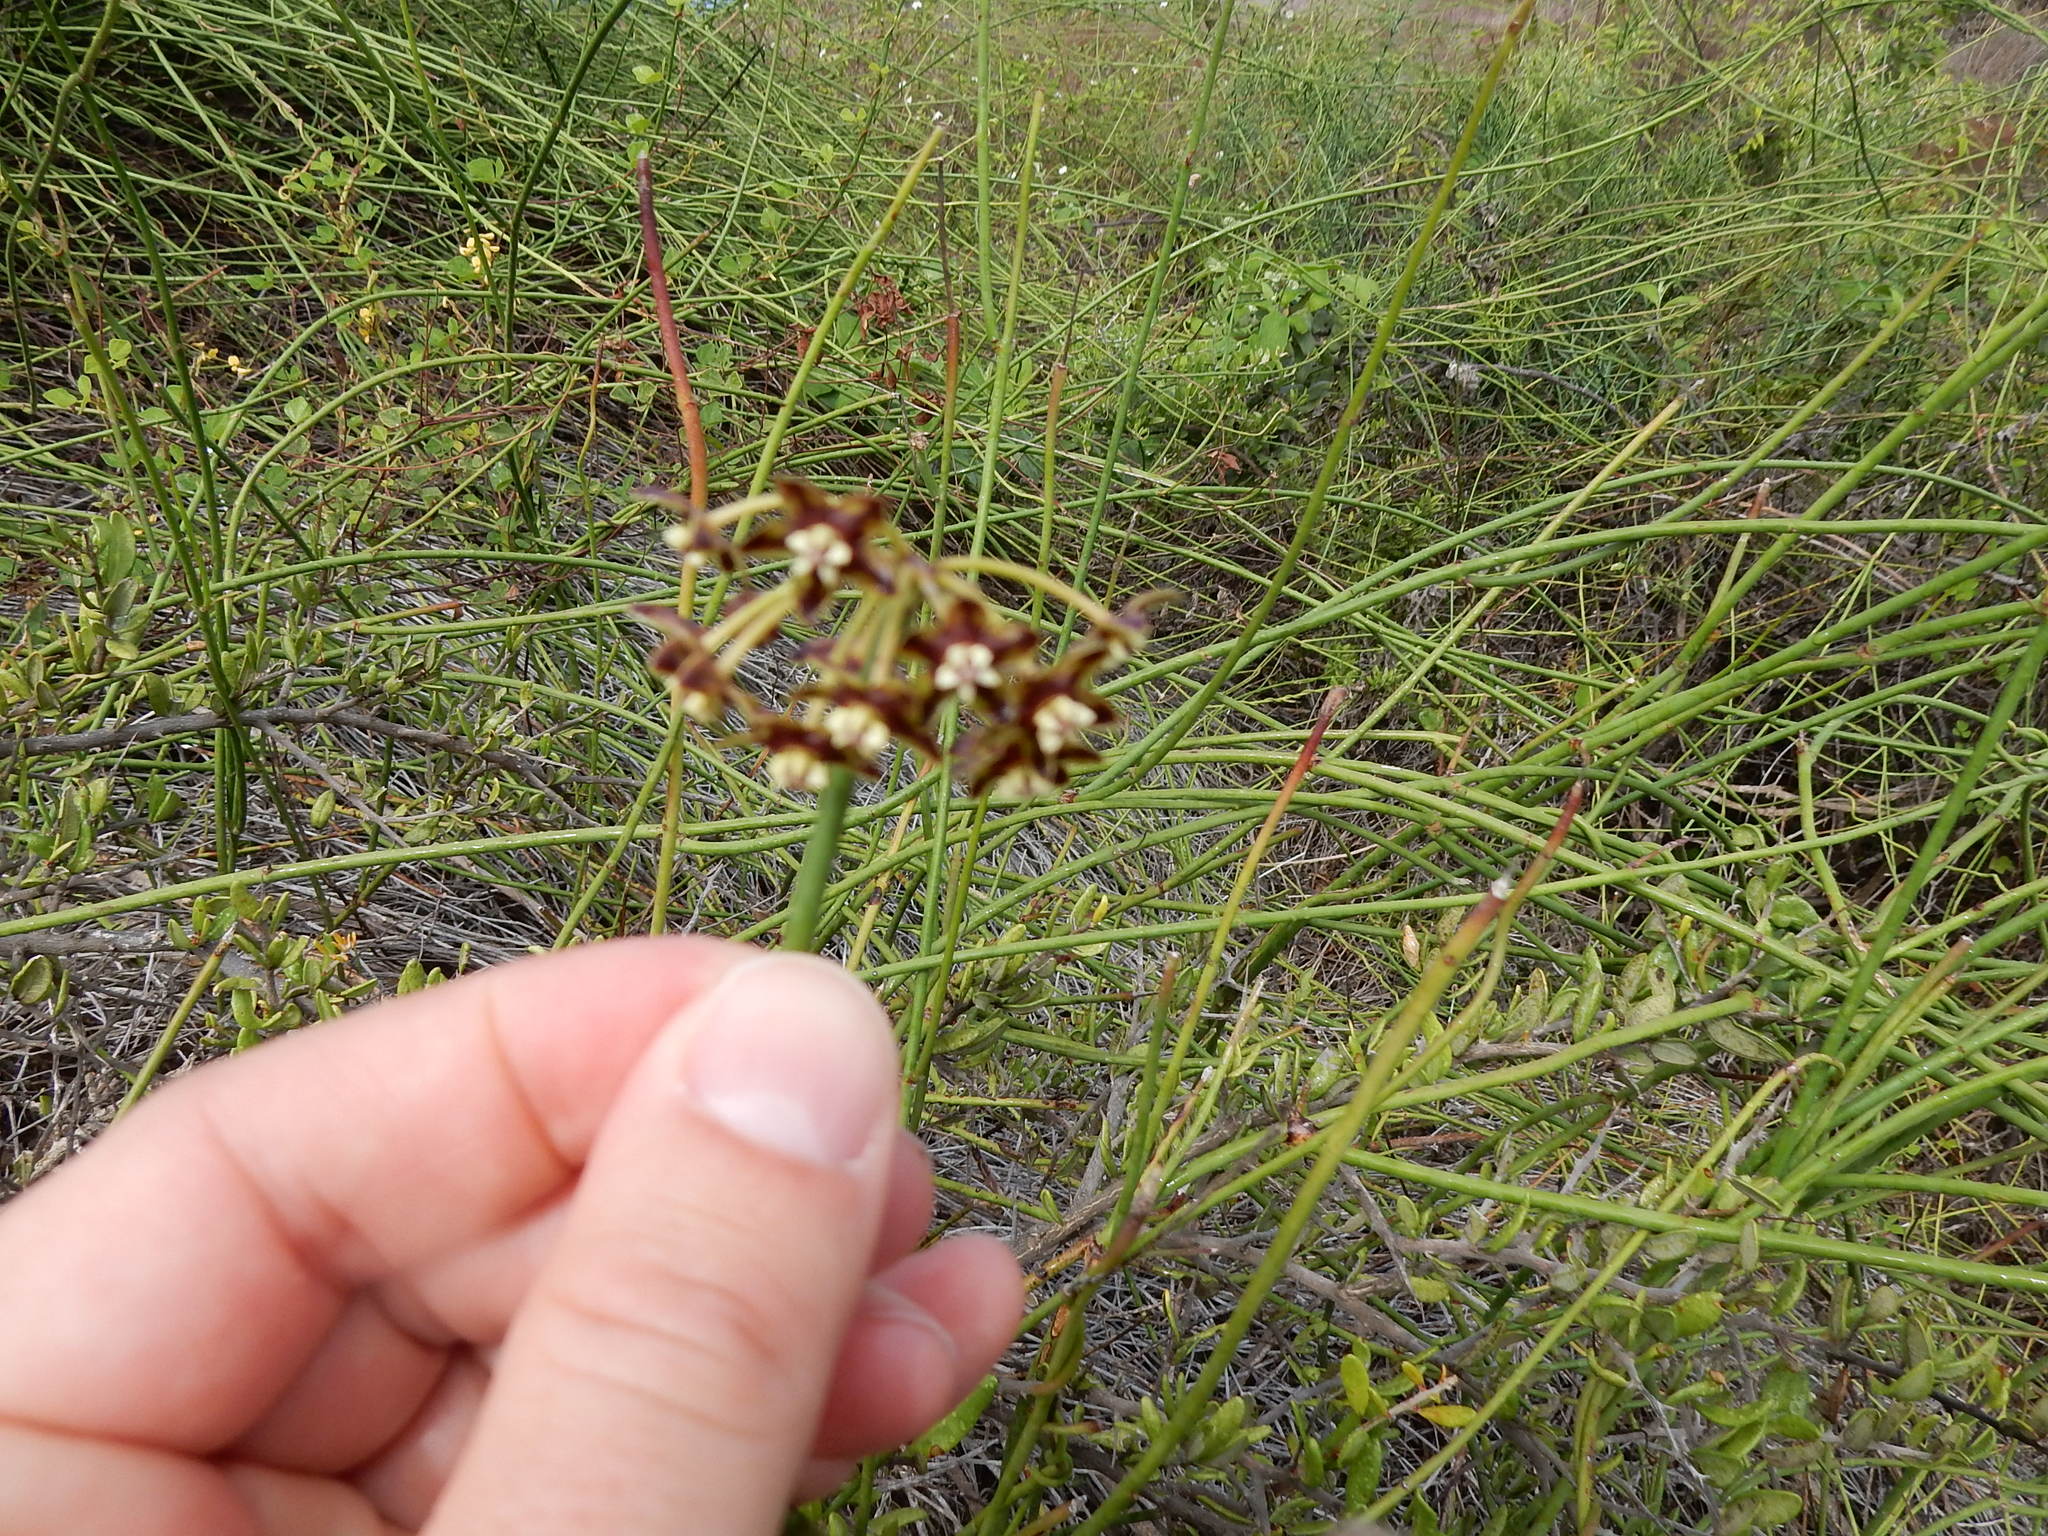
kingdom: Plantae
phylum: Tracheophyta
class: Magnoliopsida
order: Gentianales
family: Apocynaceae
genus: Funastrum
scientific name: Funastrum angustissimum
